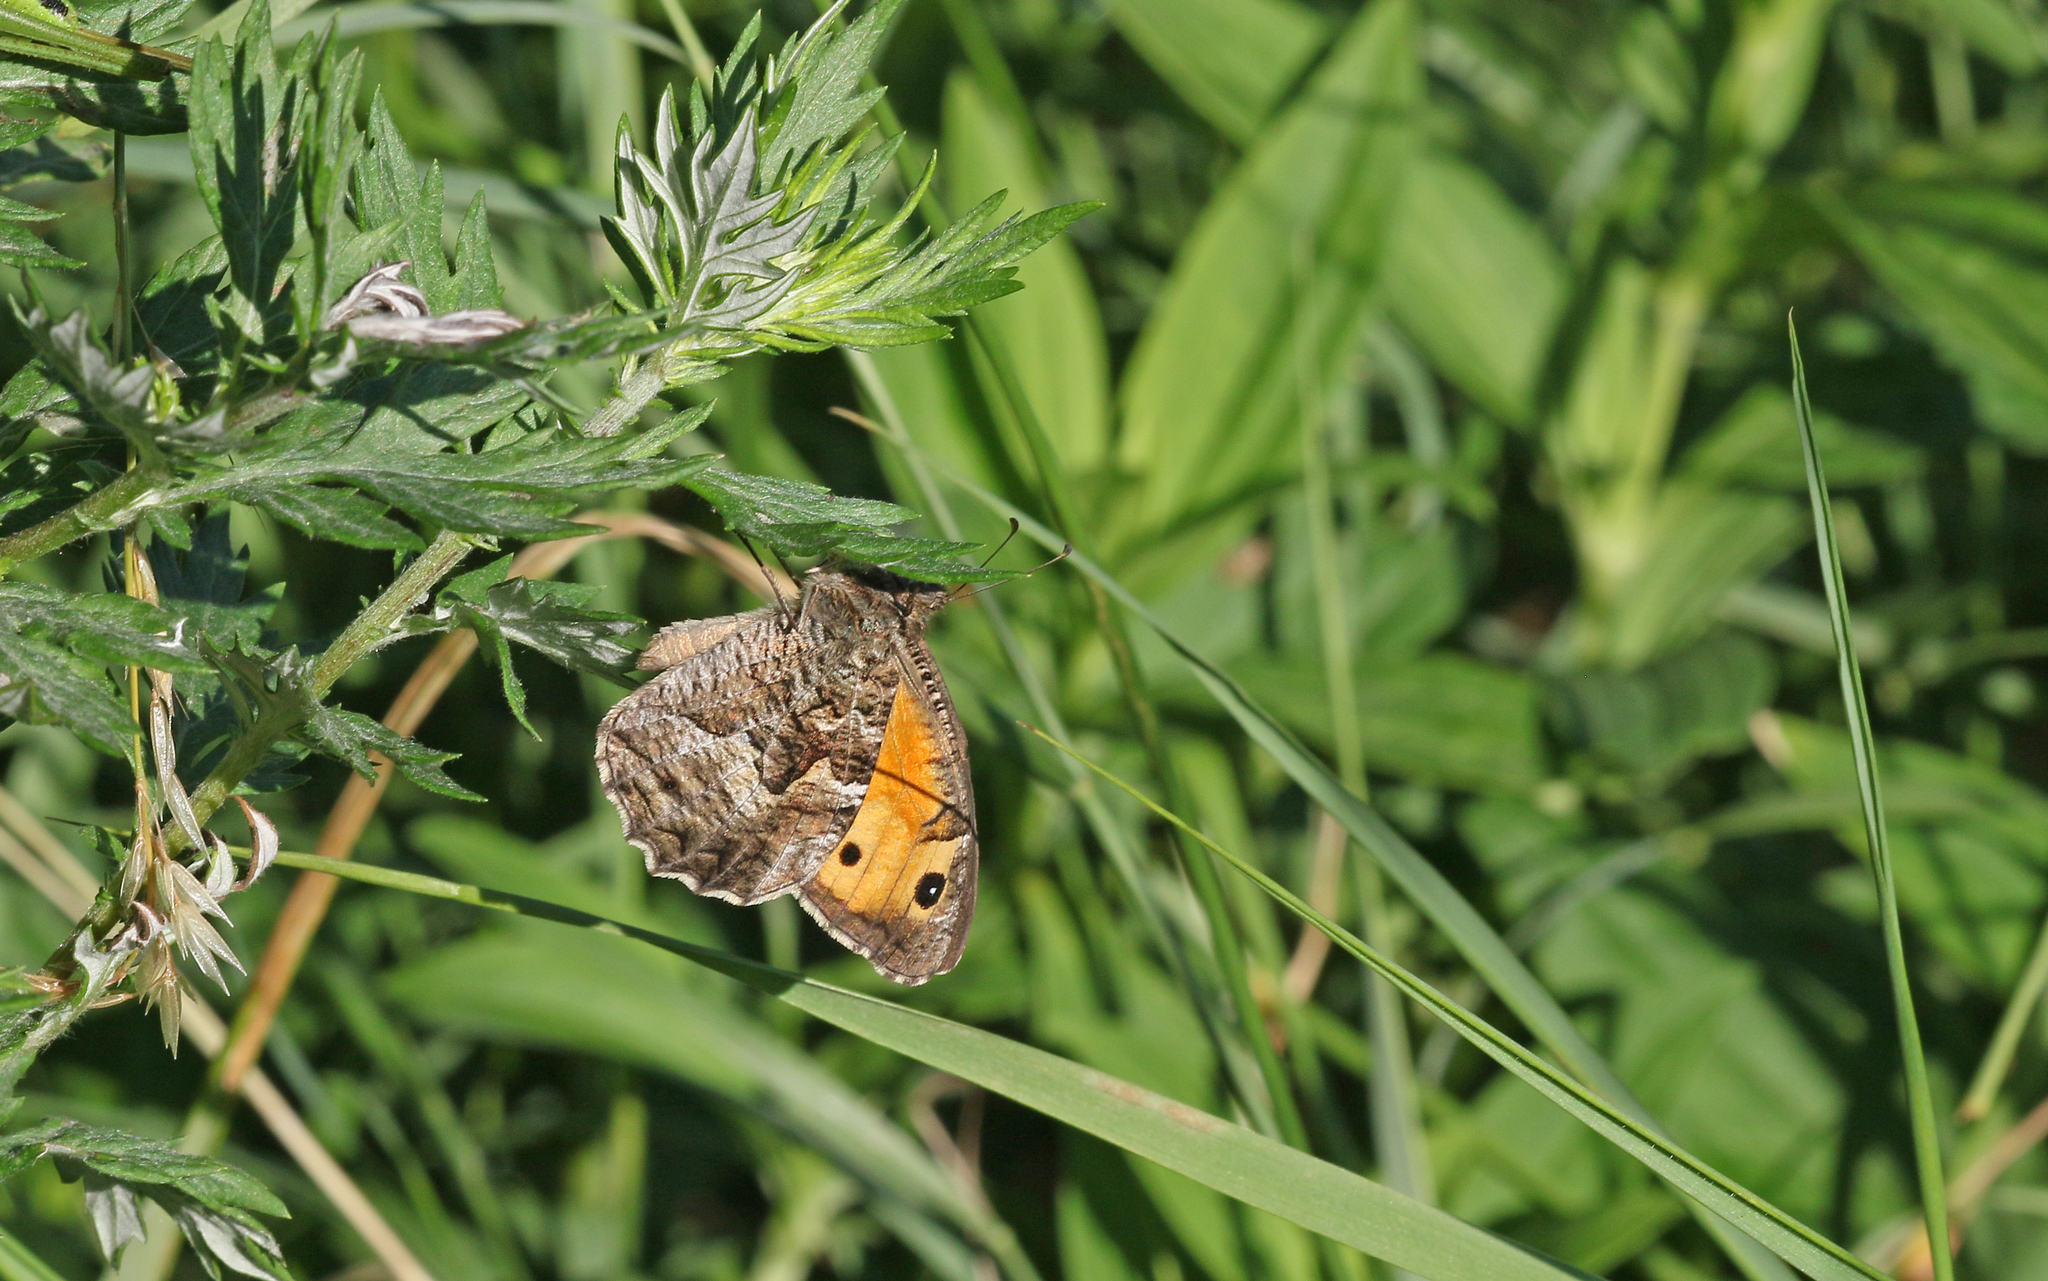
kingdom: Animalia
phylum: Arthropoda
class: Insecta
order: Lepidoptera
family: Nymphalidae
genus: Hipparchia
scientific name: Hipparchia semele
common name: Grayling
